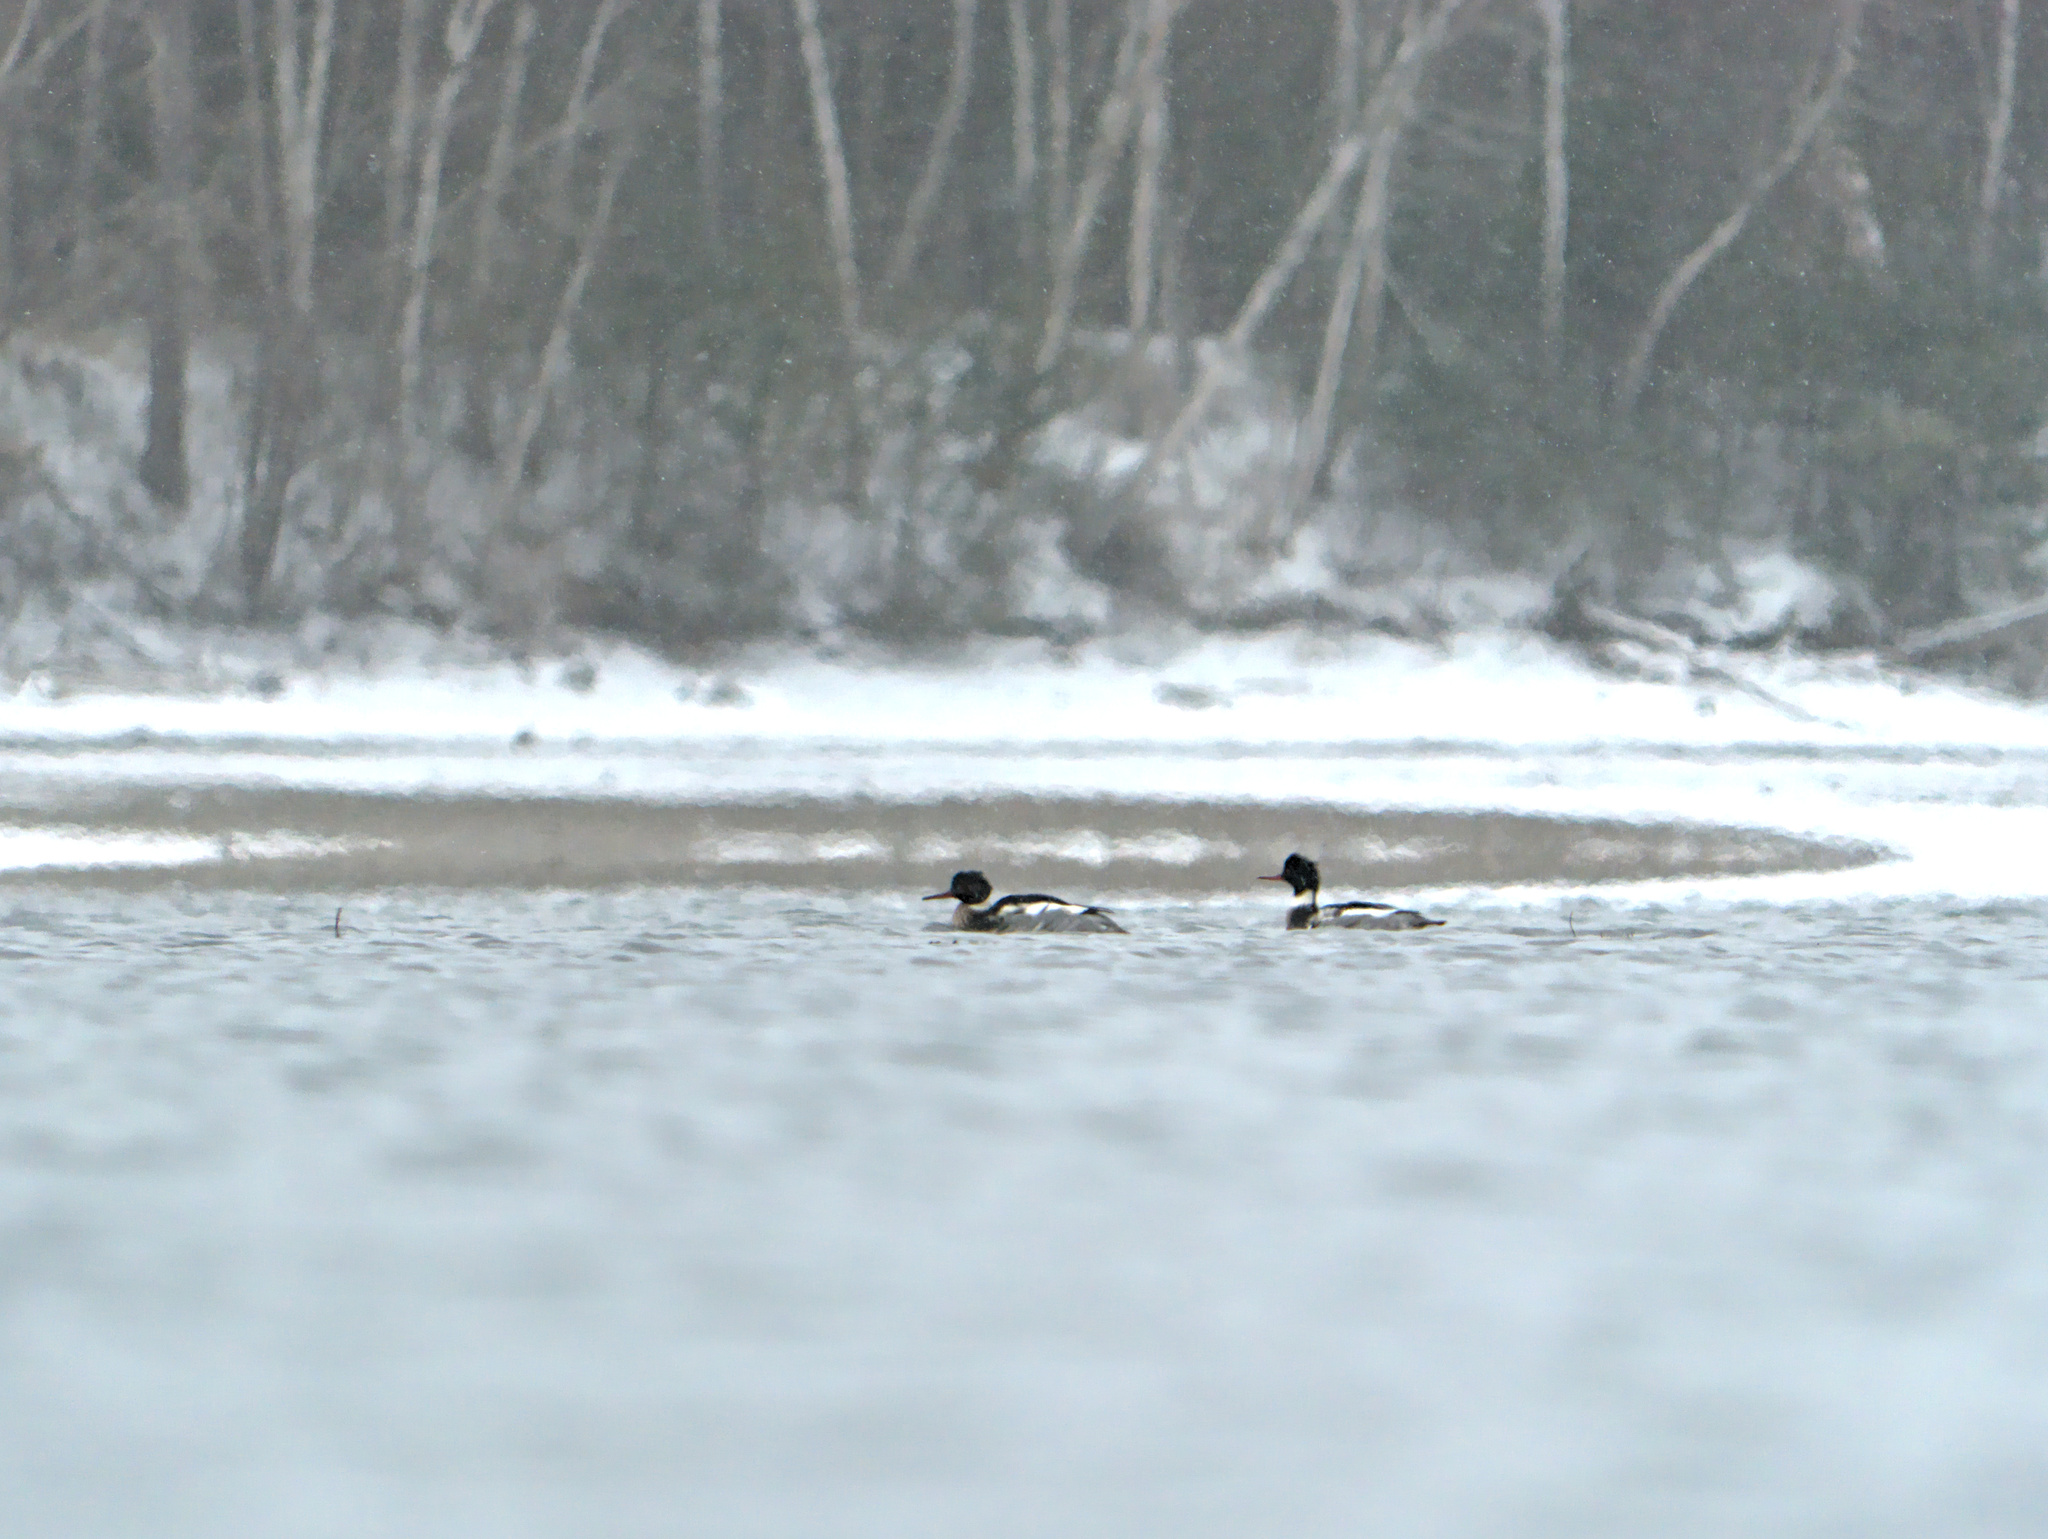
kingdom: Animalia
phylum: Chordata
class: Aves
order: Anseriformes
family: Anatidae
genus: Mergus
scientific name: Mergus serrator
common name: Red-breasted merganser
